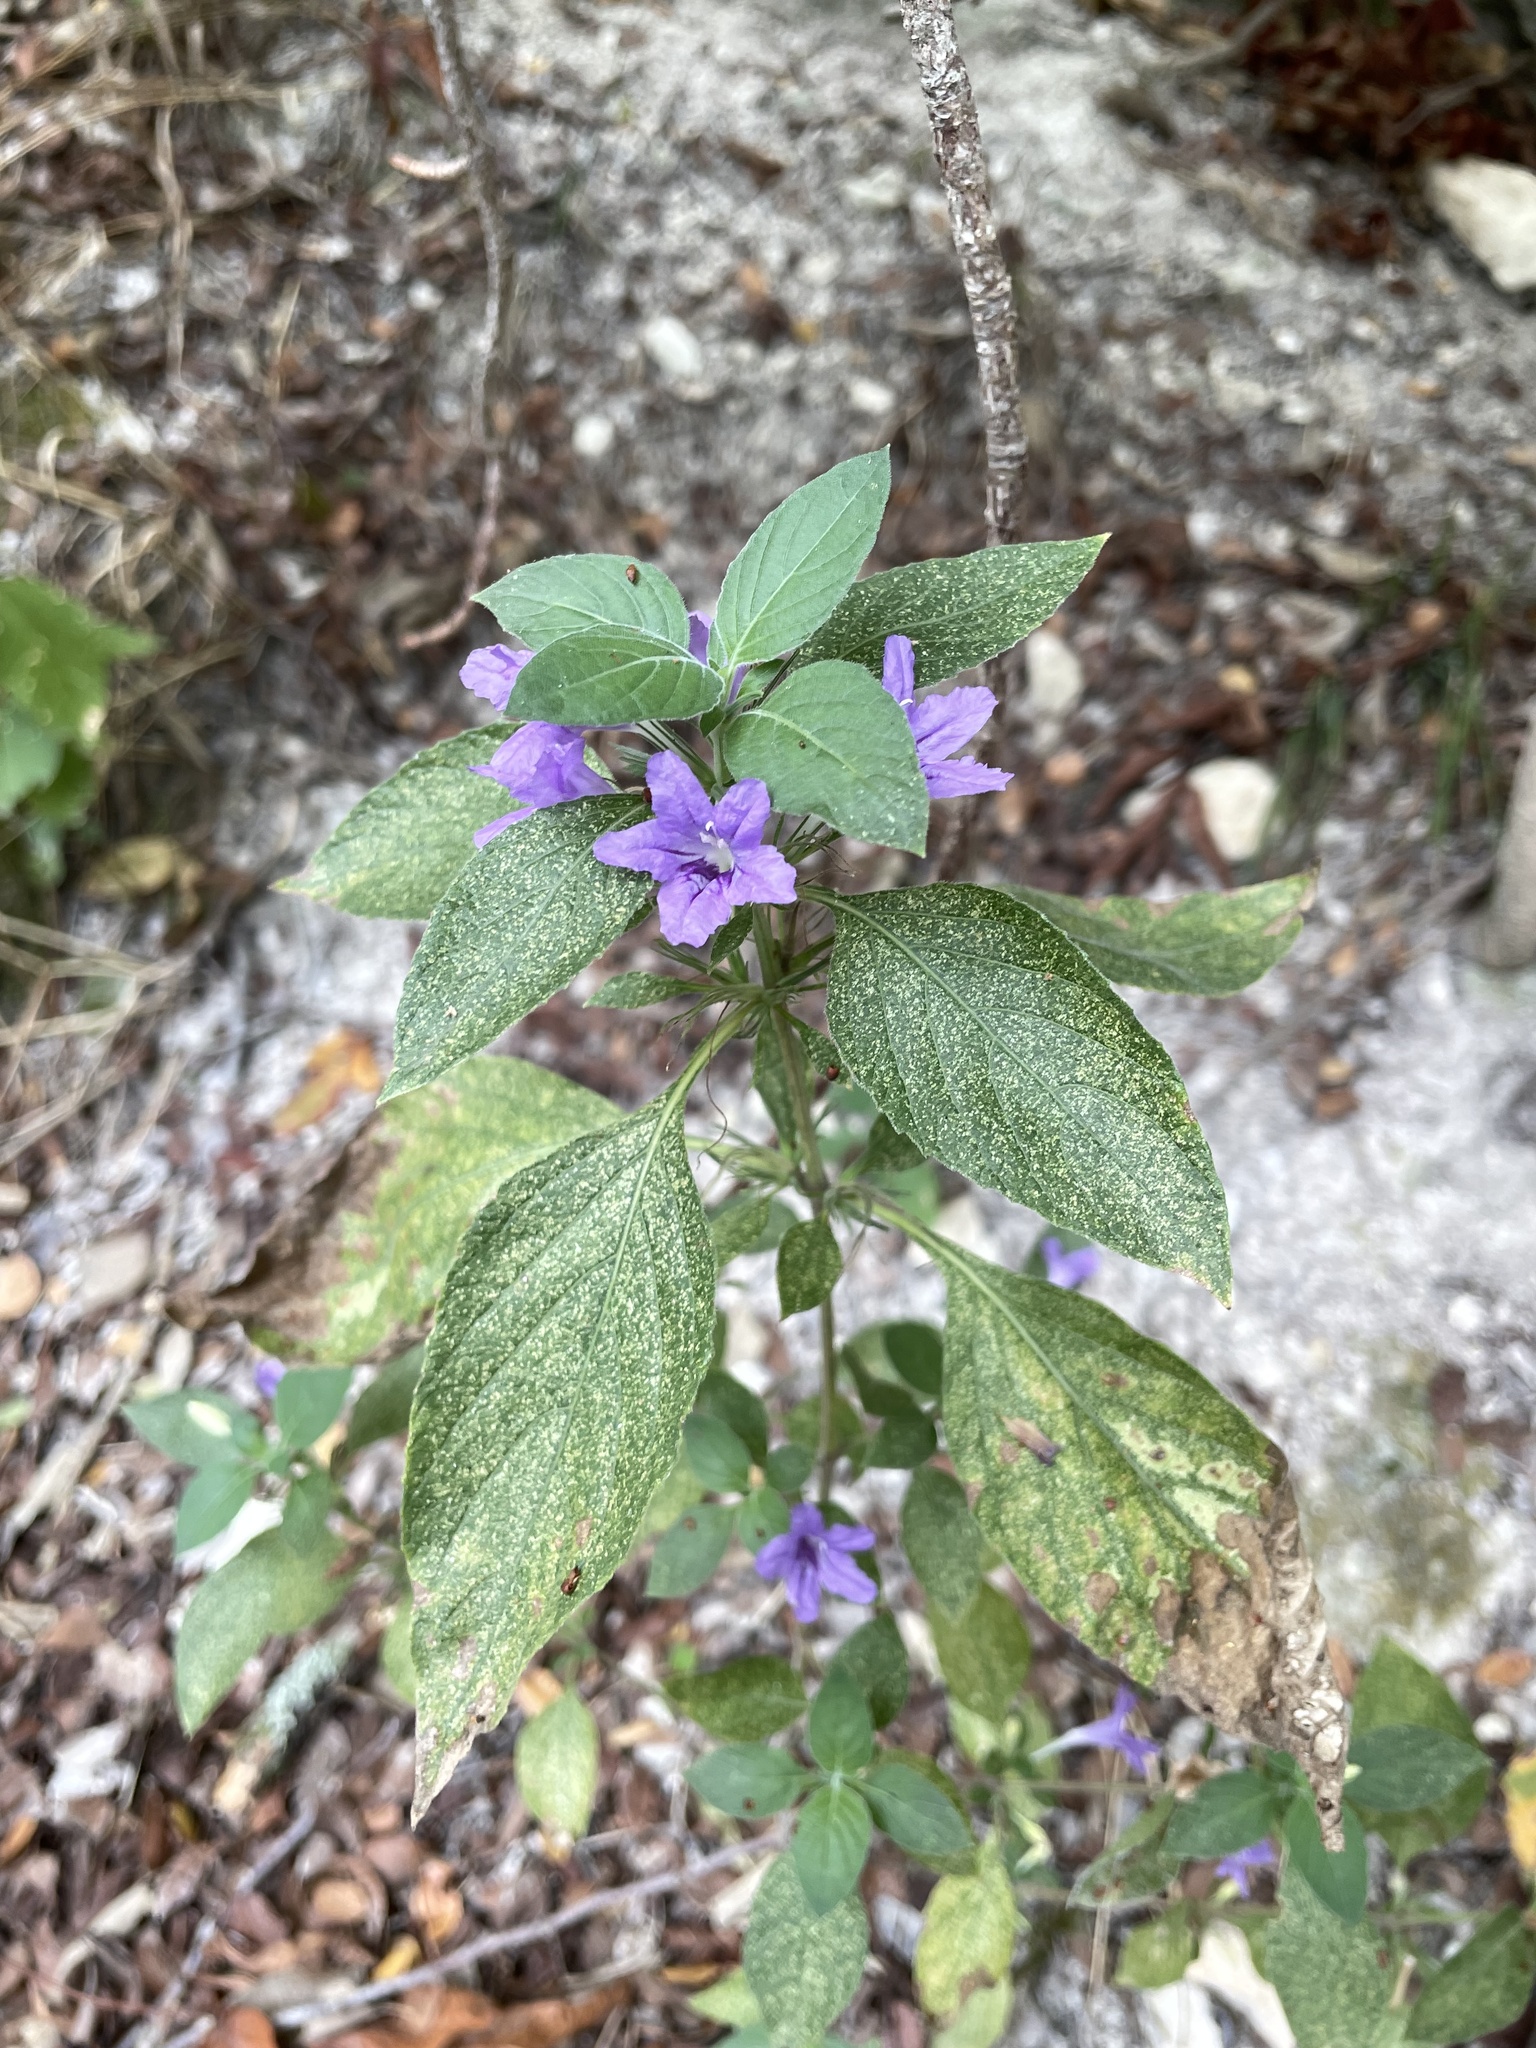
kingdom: Plantae
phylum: Tracheophyta
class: Magnoliopsida
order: Lamiales
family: Acanthaceae
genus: Ruellia
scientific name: Ruellia drummondiana
